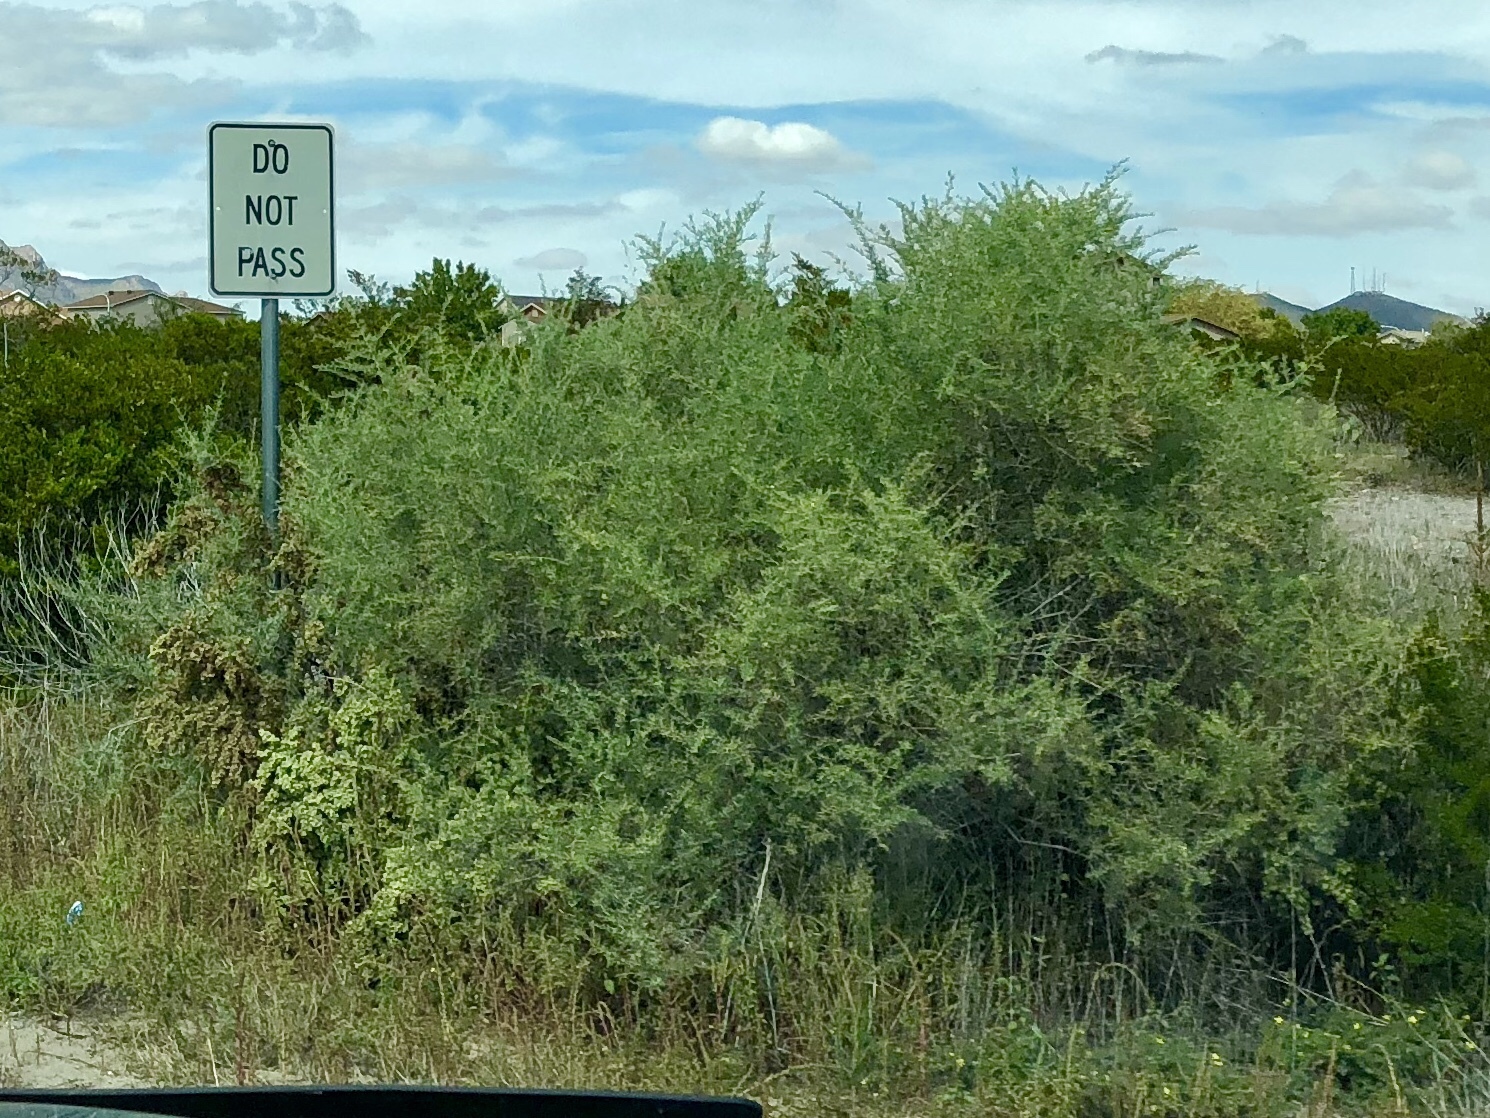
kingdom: Plantae
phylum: Tracheophyta
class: Magnoliopsida
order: Caryophyllales
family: Amaranthaceae
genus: Atriplex
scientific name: Atriplex canescens
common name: Four-wing saltbush
